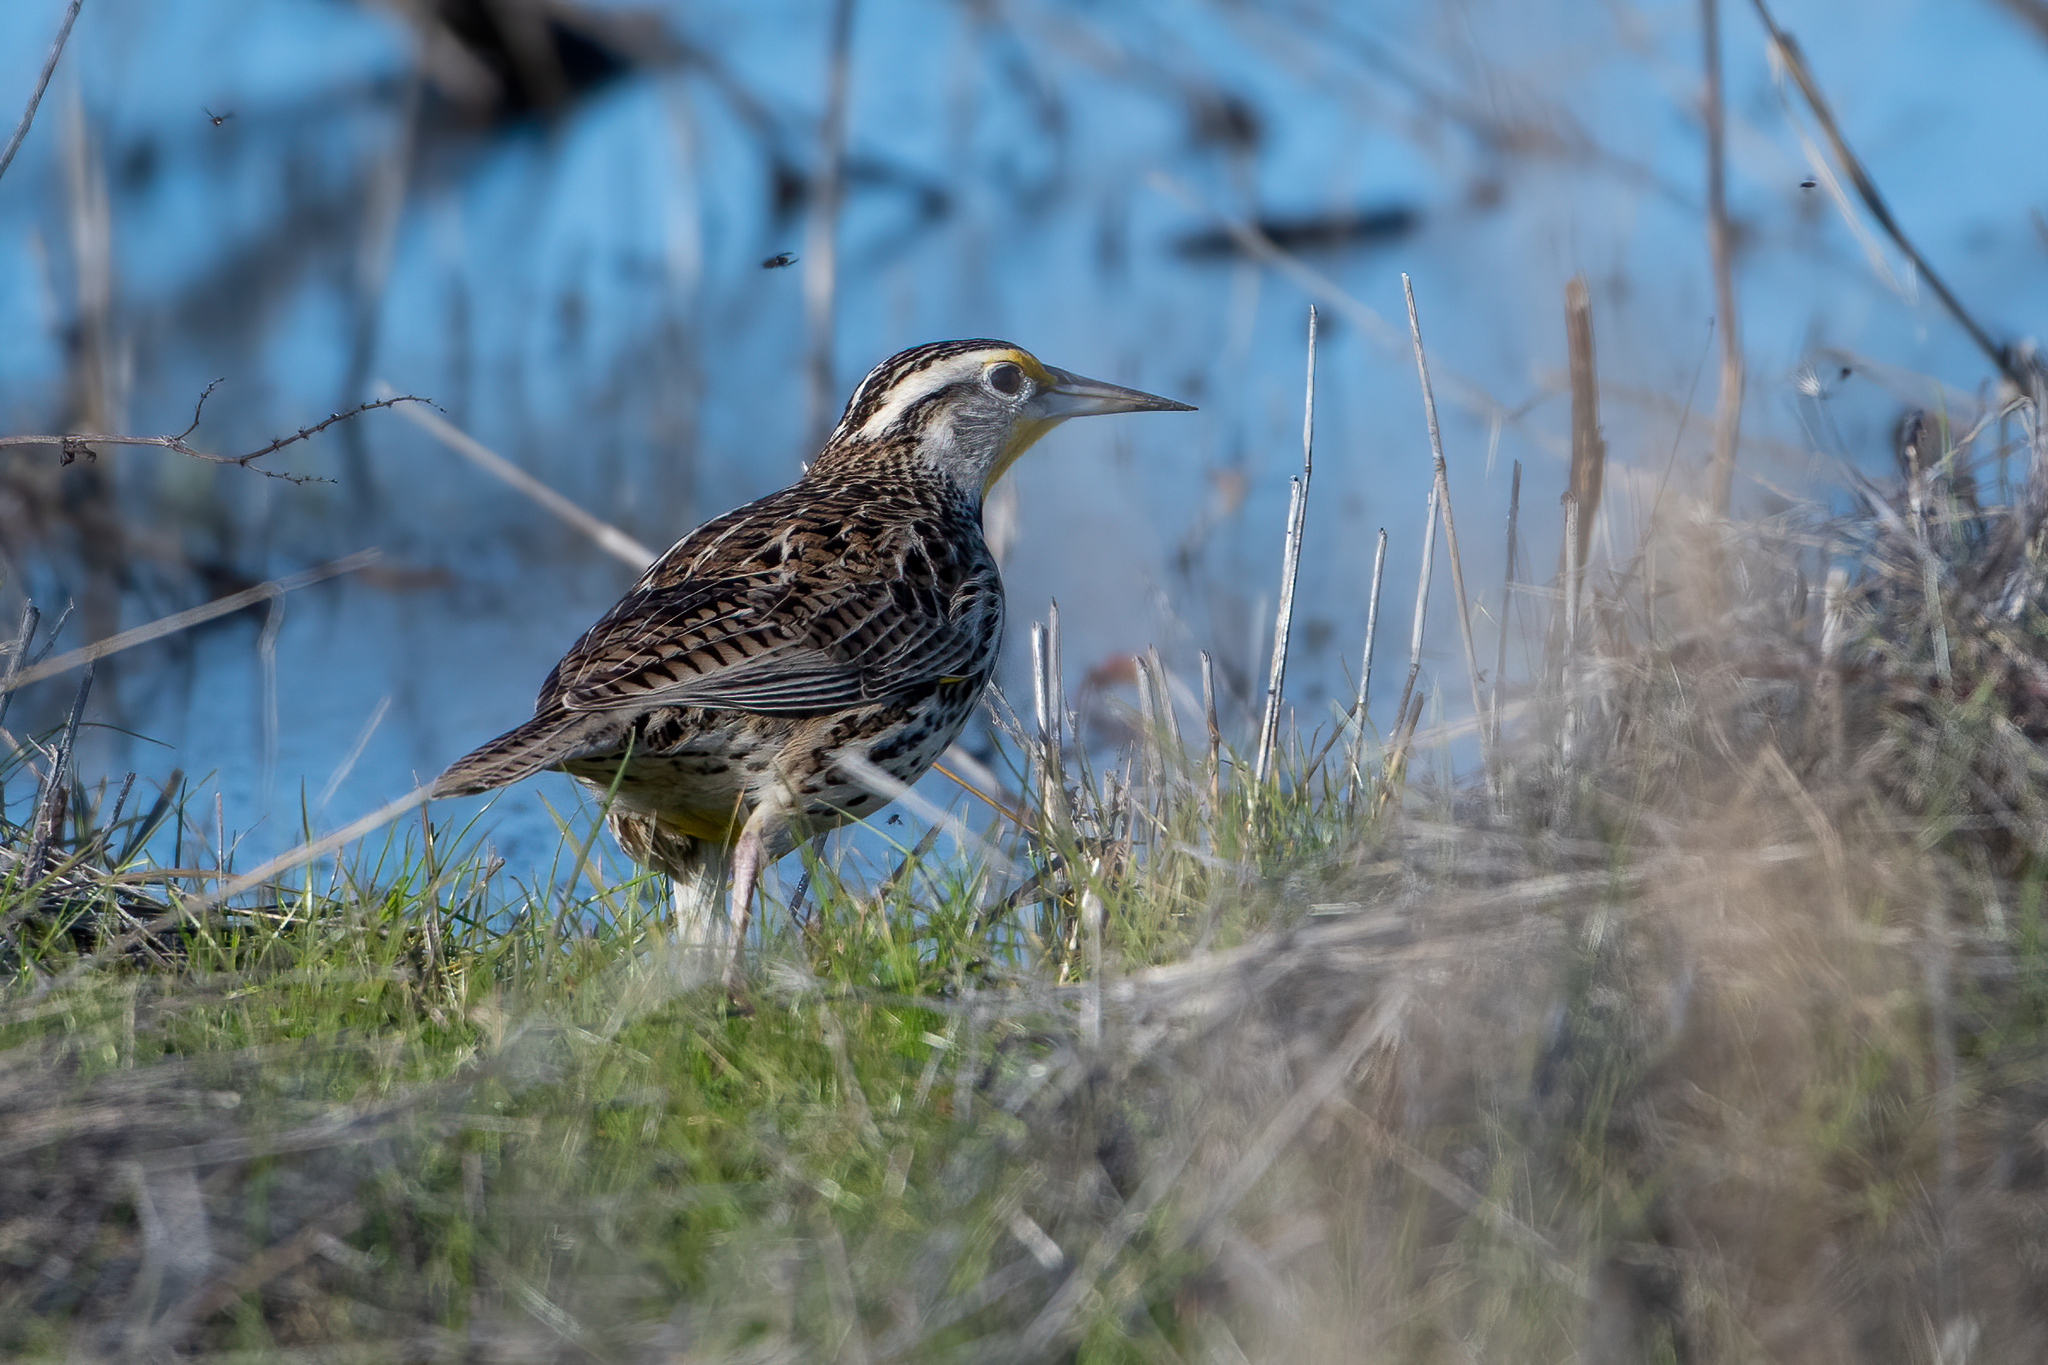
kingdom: Animalia
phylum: Chordata
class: Aves
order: Passeriformes
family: Icteridae
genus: Sturnella
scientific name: Sturnella neglecta
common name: Western meadowlark
